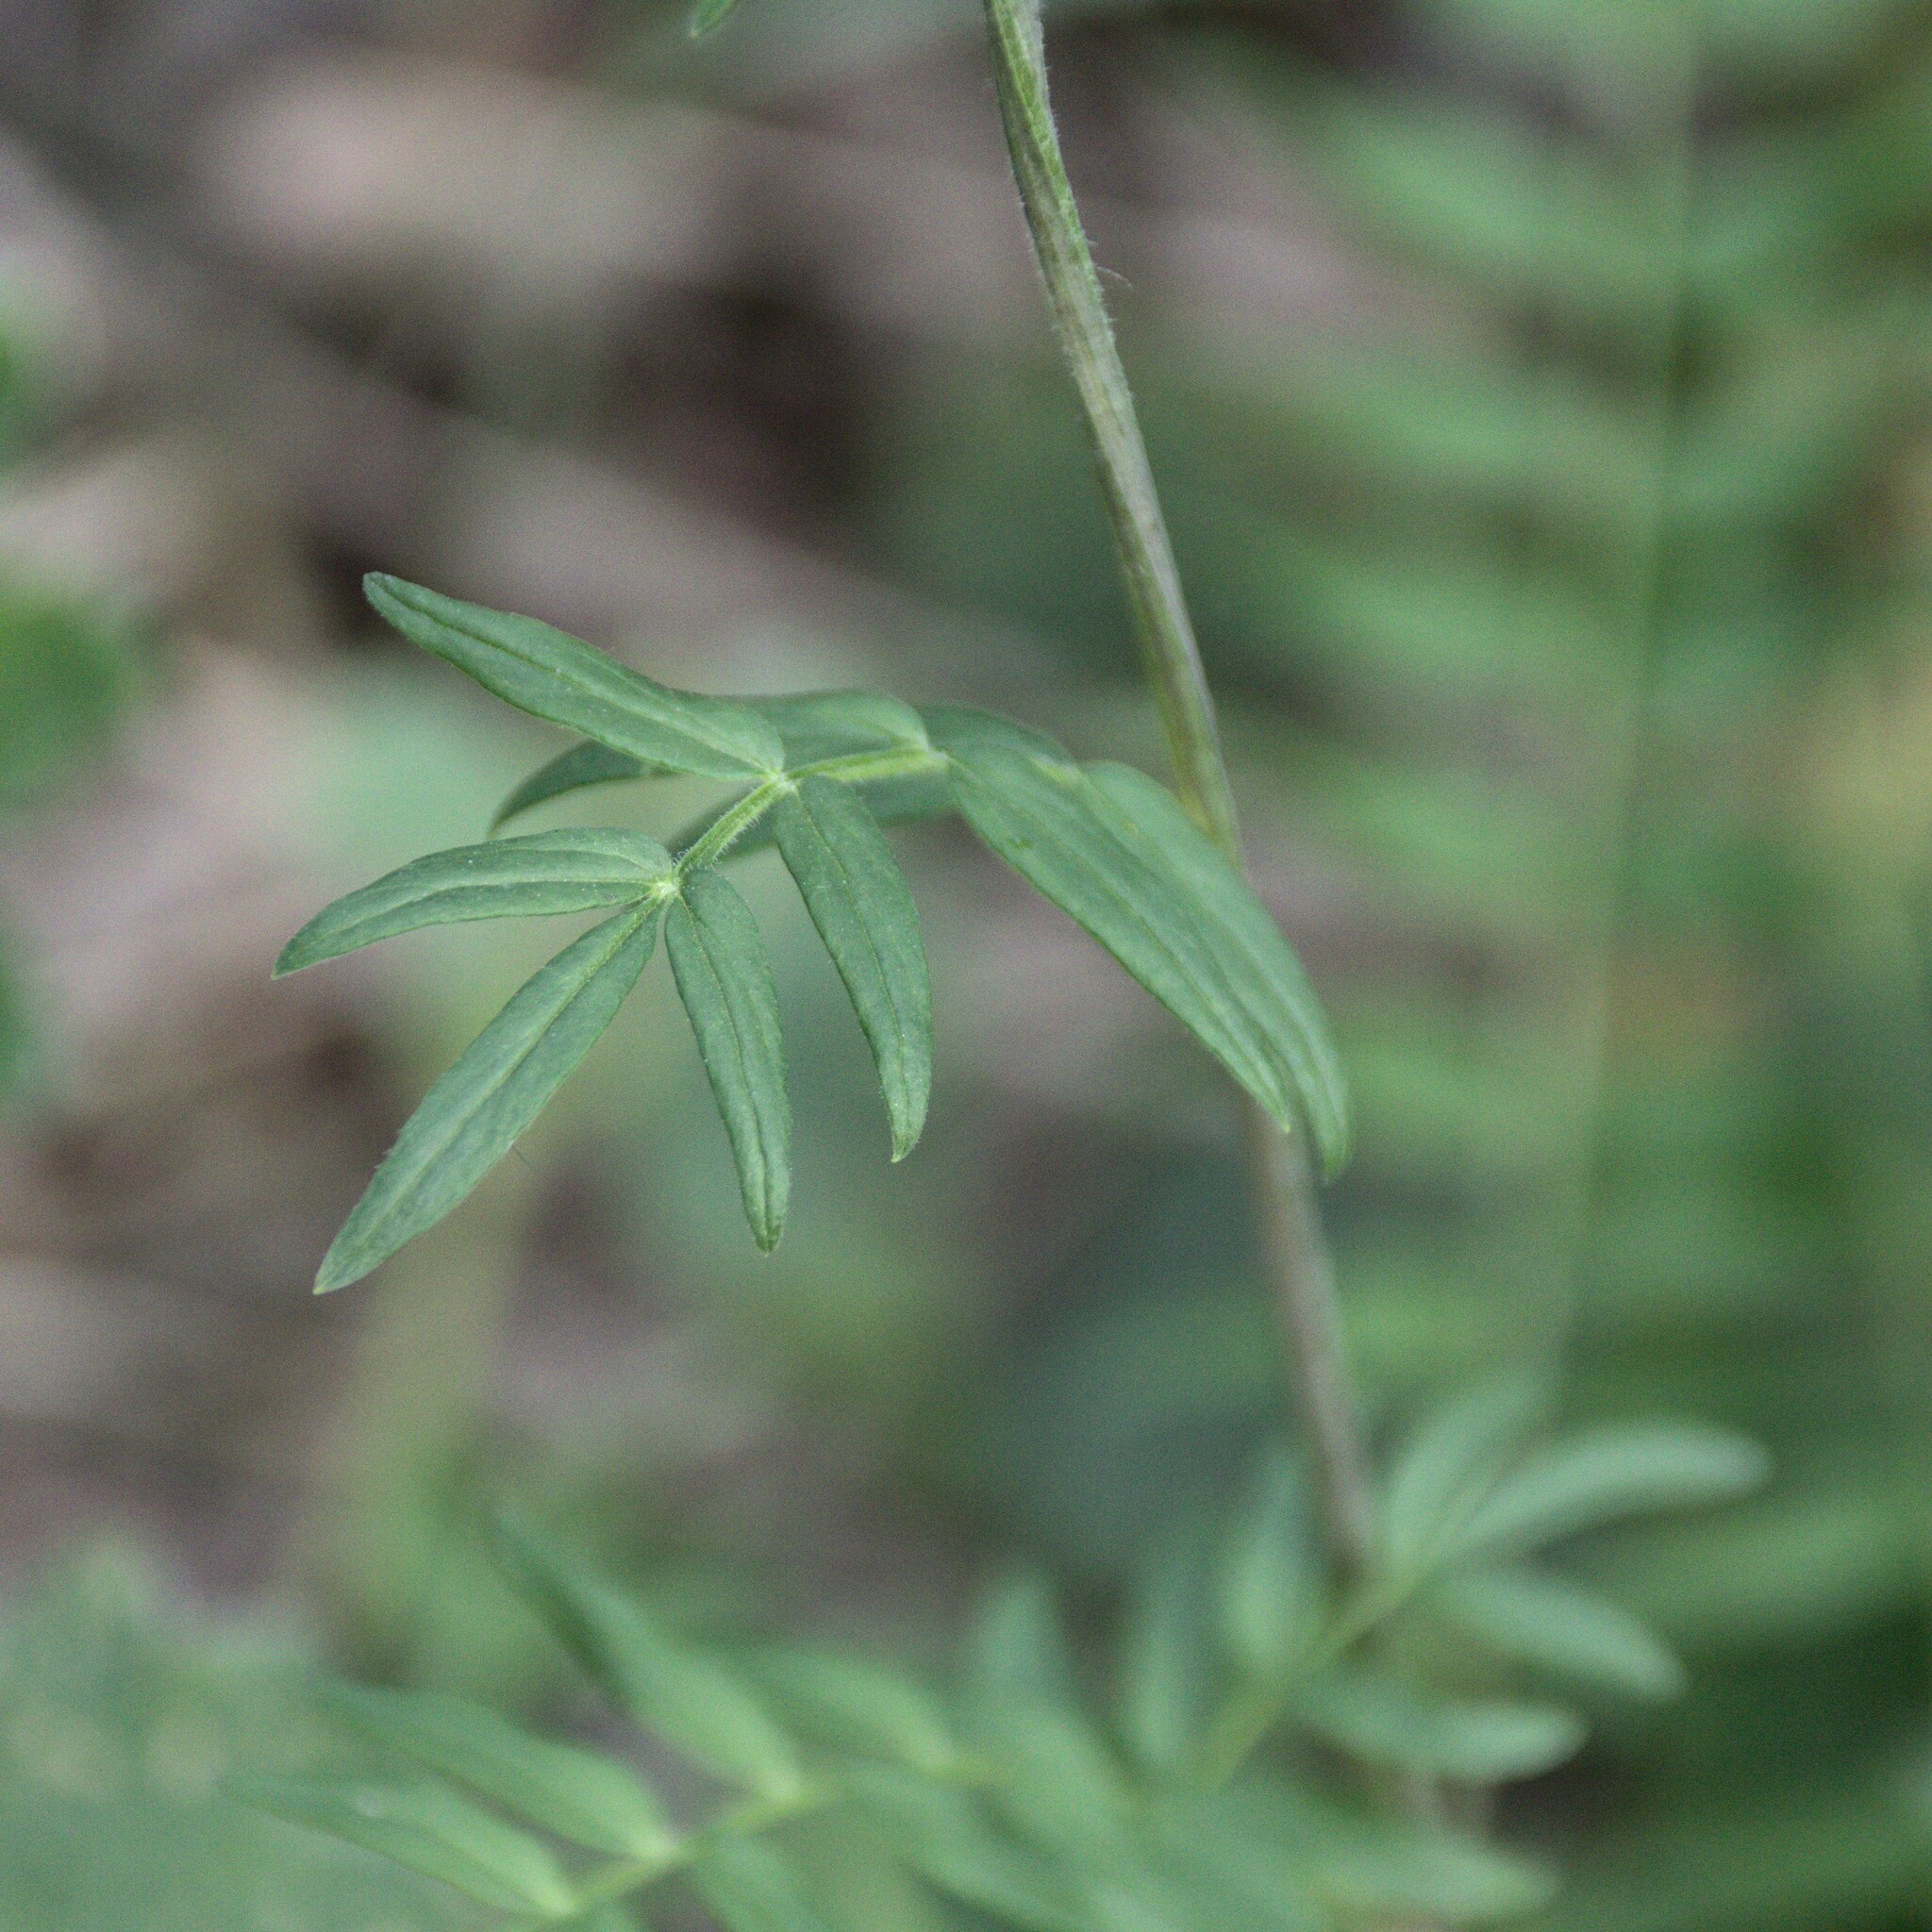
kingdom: Plantae
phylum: Tracheophyta
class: Magnoliopsida
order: Ericales
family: Polemoniaceae
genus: Polemonium
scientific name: Polemonium caeruleum
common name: Jacob's-ladder
